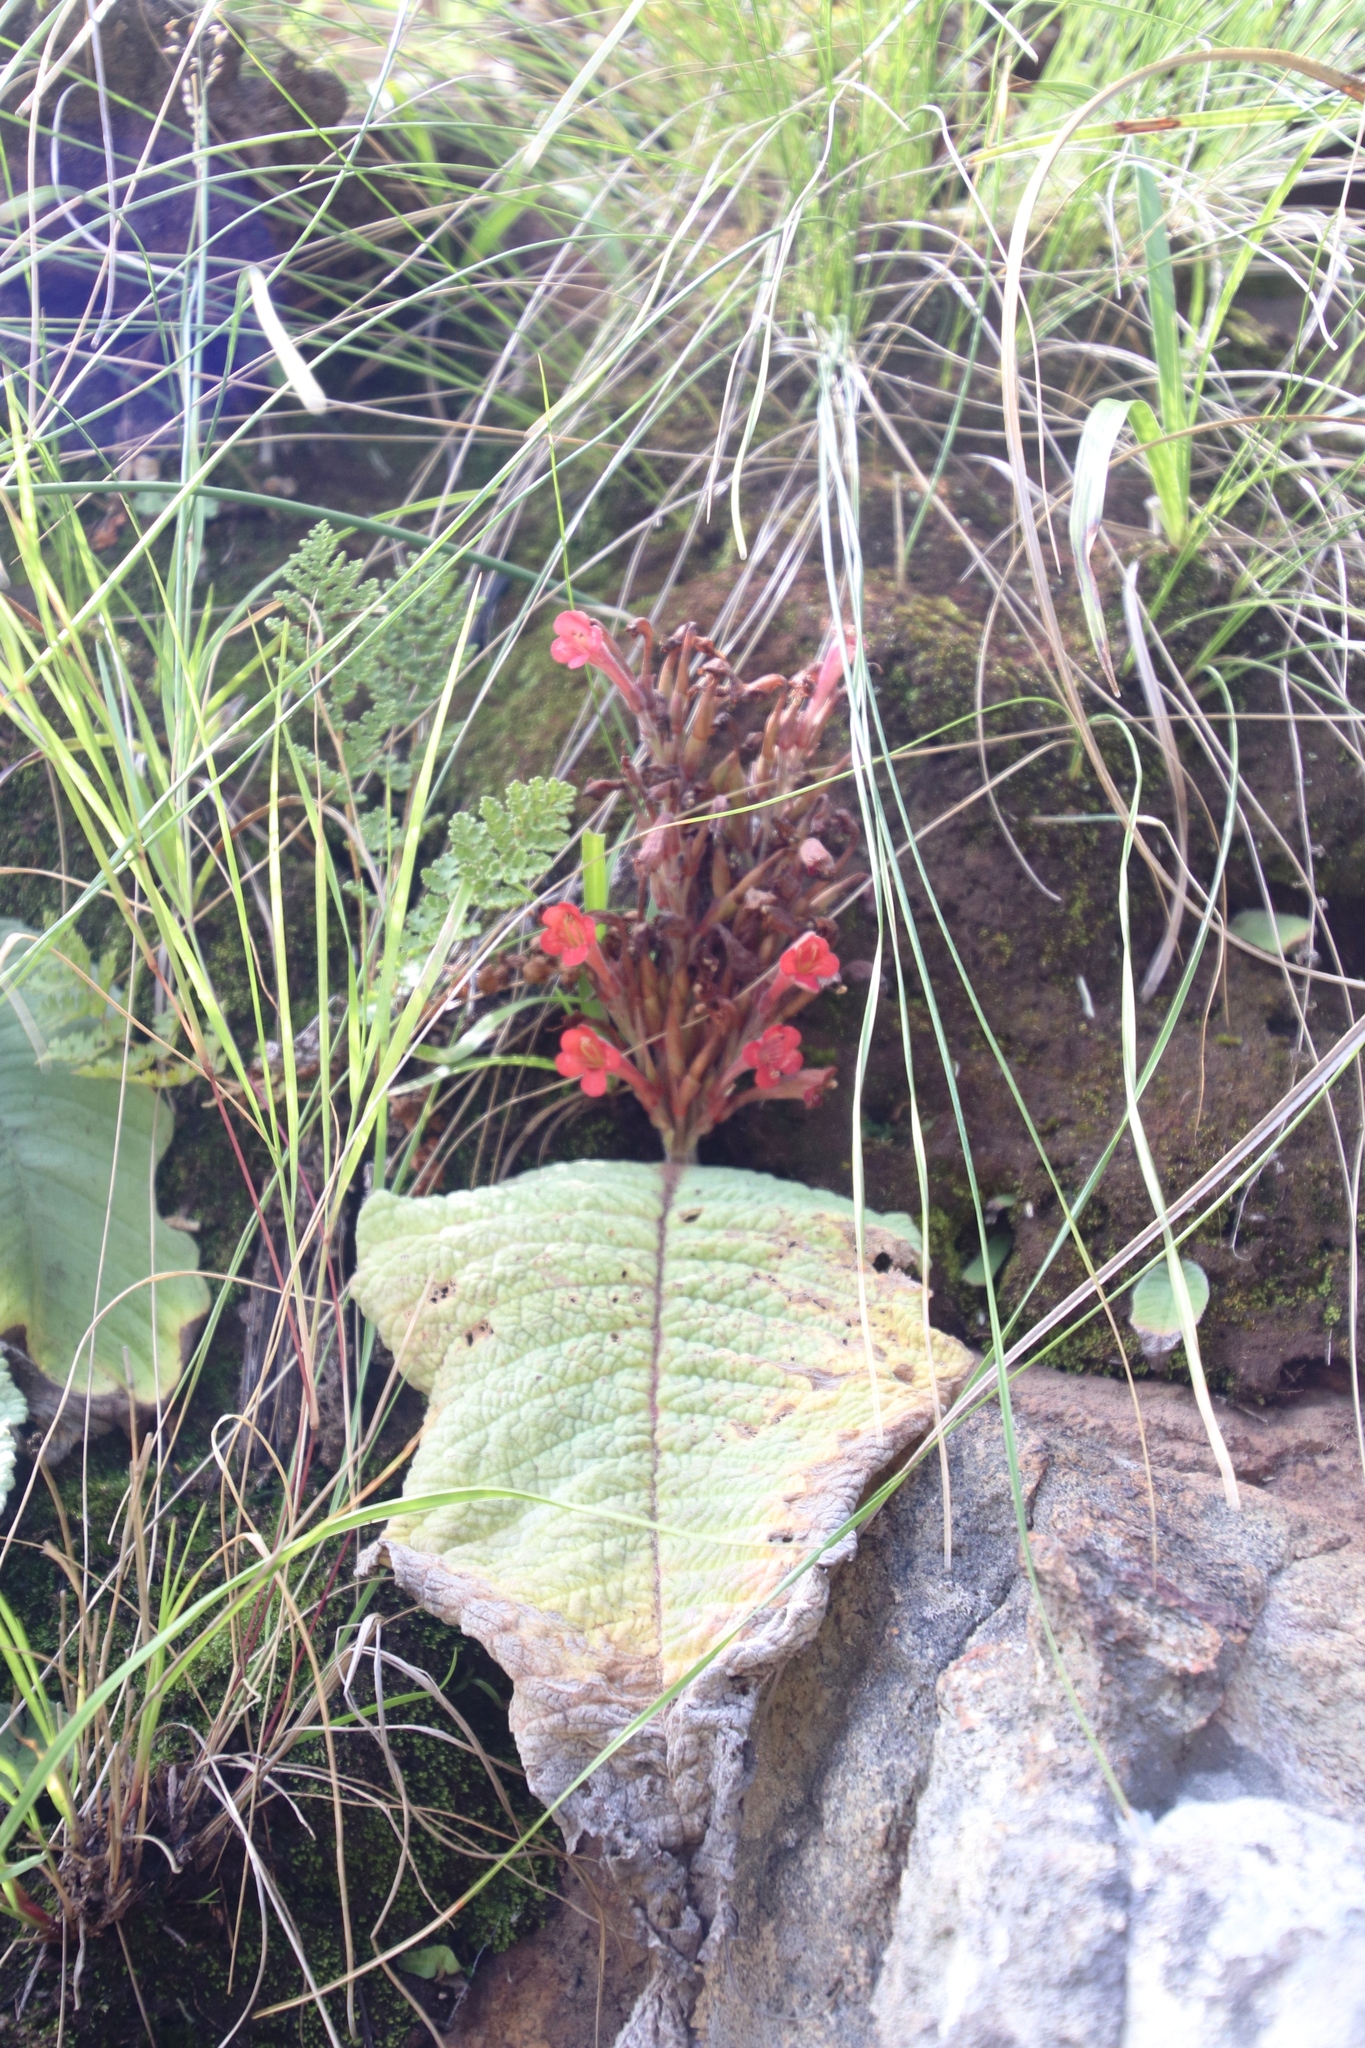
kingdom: Plantae
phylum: Tracheophyta
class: Magnoliopsida
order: Lamiales
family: Gesneriaceae
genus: Streptocarpus
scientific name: Streptocarpus dunnii
